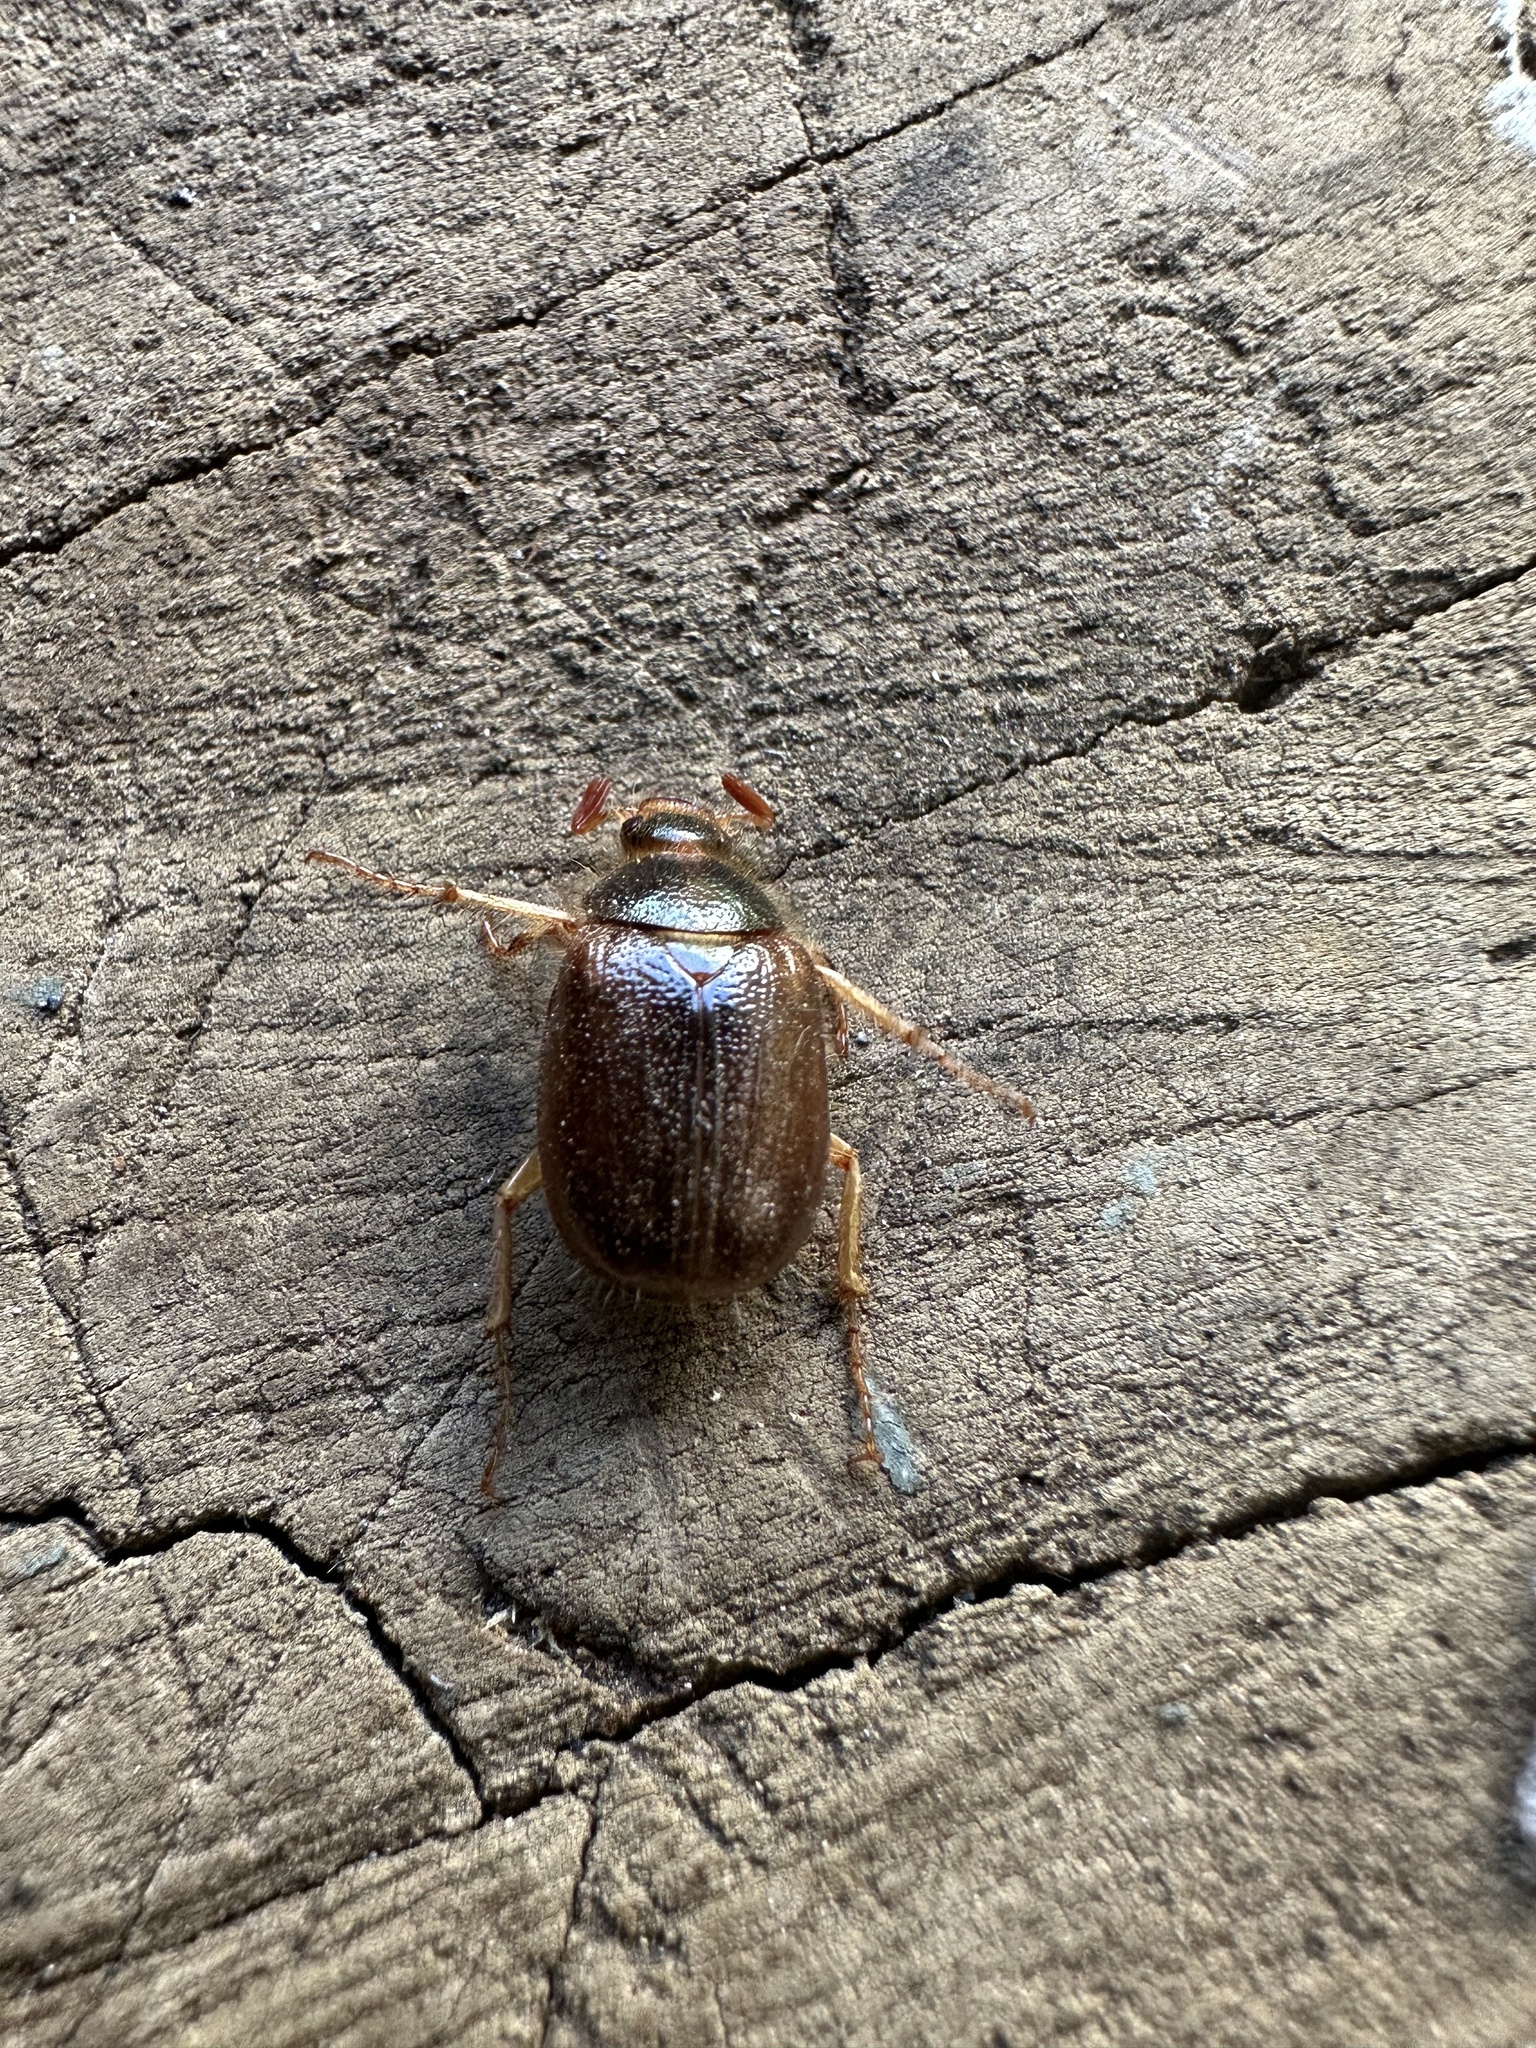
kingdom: Animalia
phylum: Arthropoda
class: Insecta
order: Coleoptera
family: Scarabaeidae
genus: Phytholaema
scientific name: Phytholaema herrmanni
